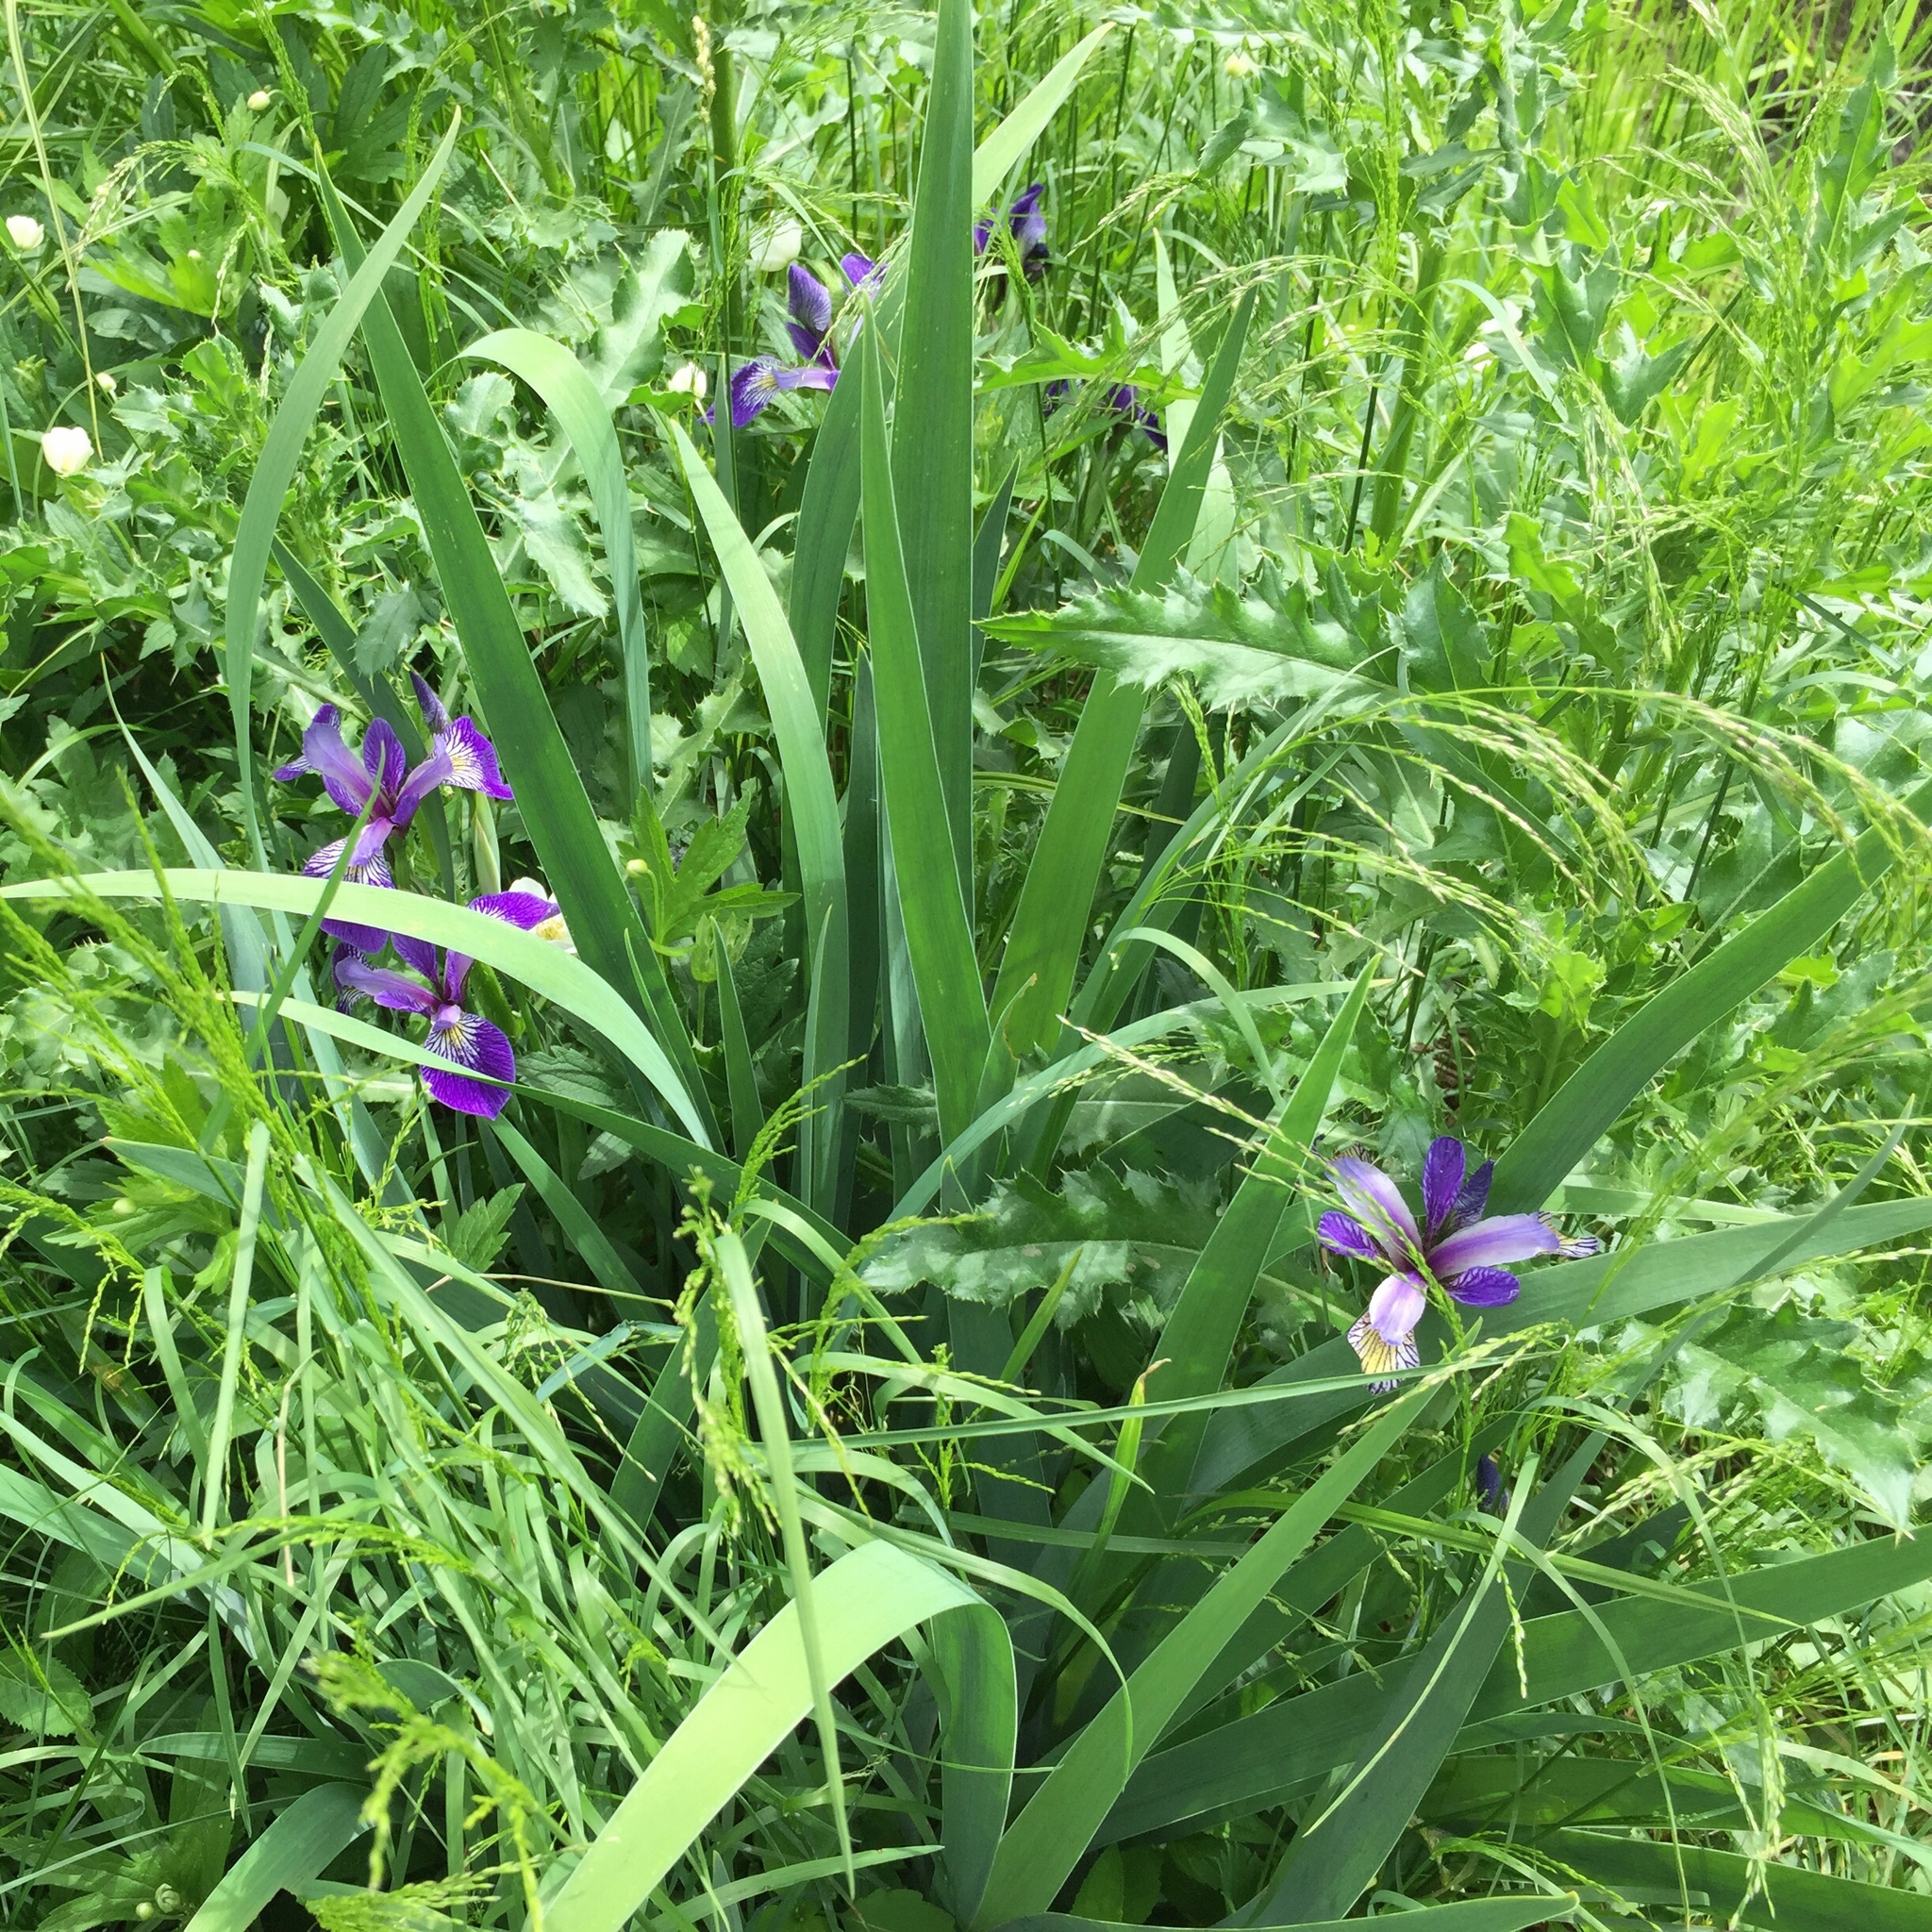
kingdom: Plantae
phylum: Tracheophyta
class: Liliopsida
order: Asparagales
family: Iridaceae
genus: Iris
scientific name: Iris versicolor
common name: Purple iris
